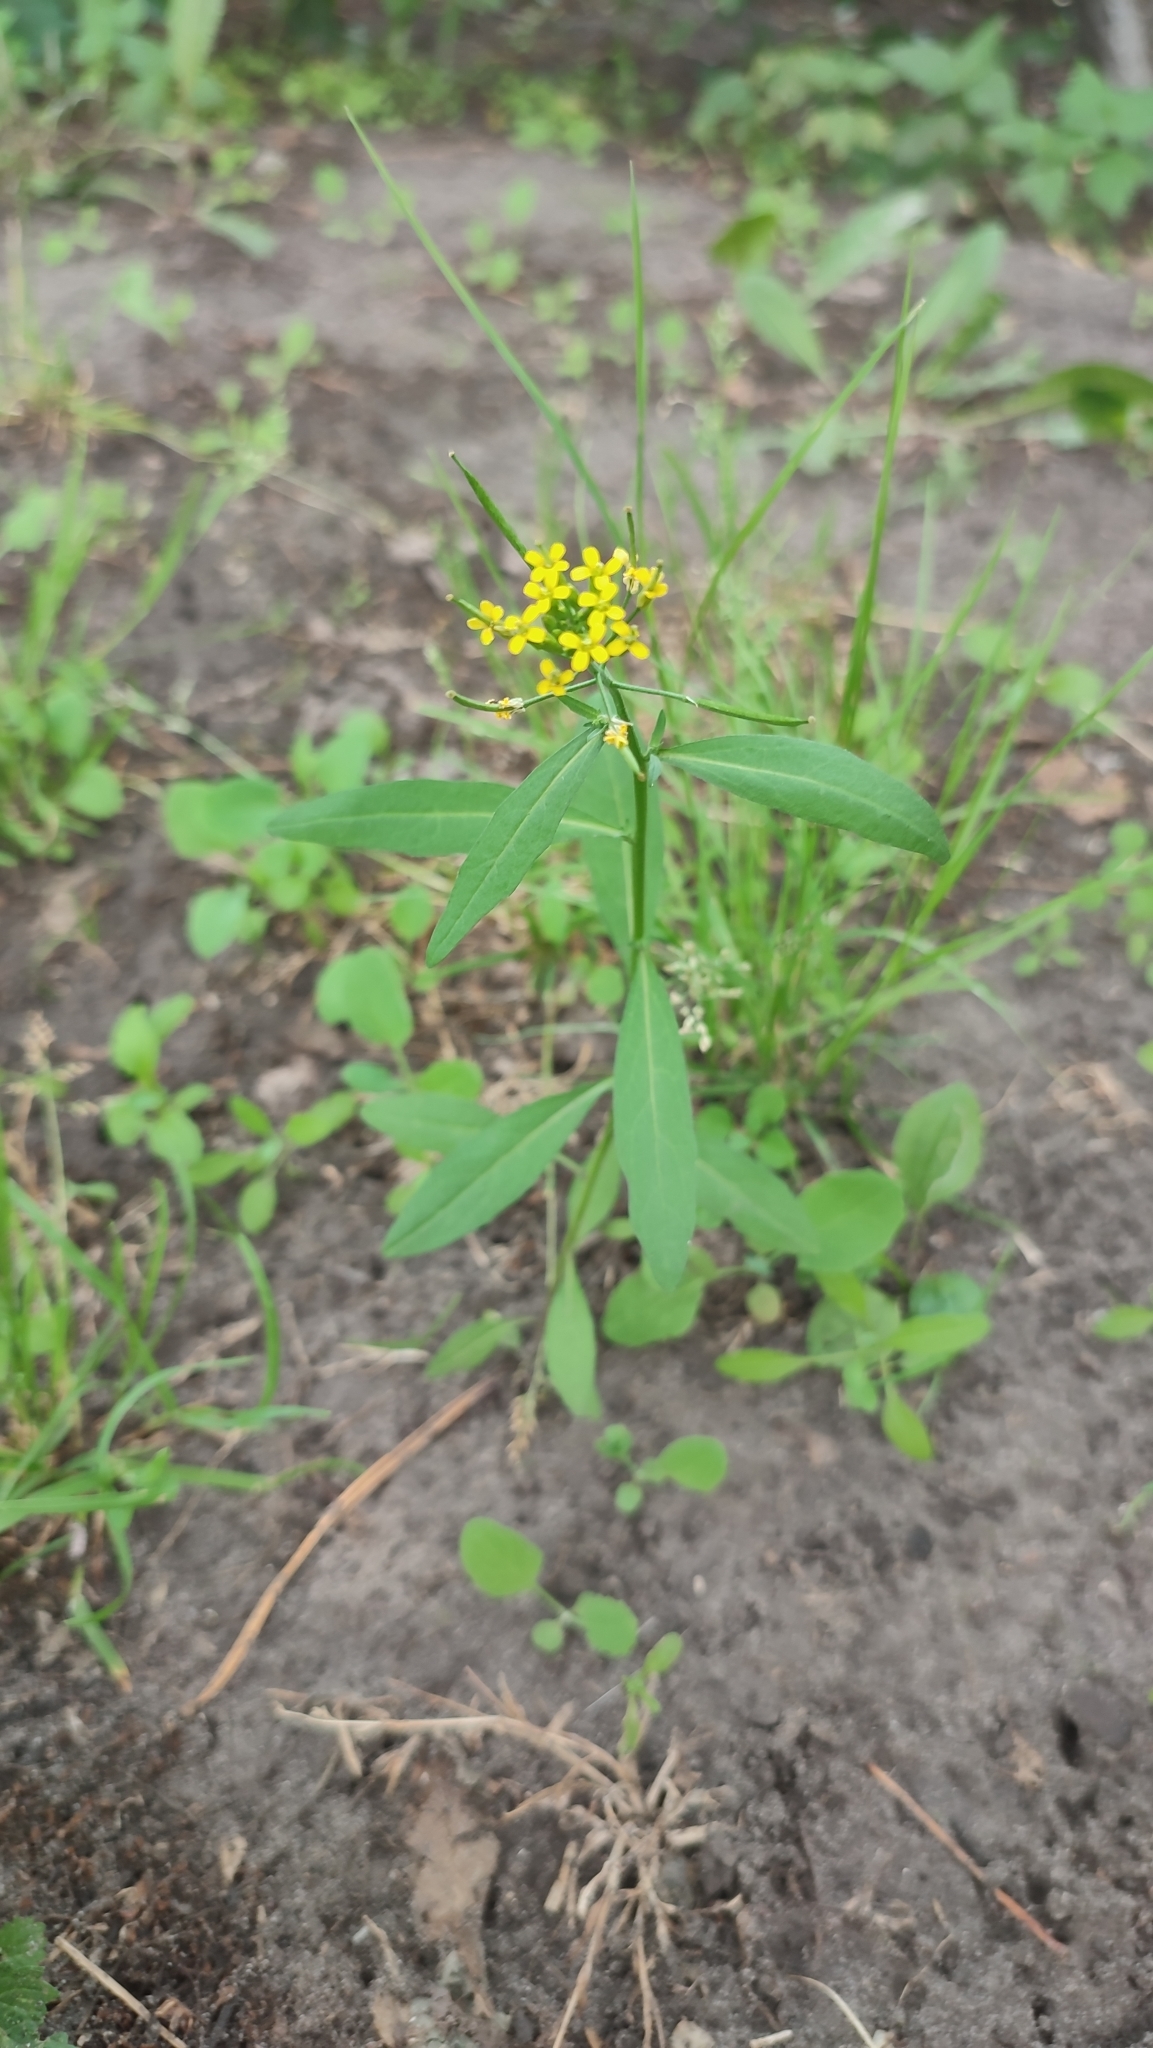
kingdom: Plantae
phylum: Tracheophyta
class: Magnoliopsida
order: Brassicales
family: Brassicaceae
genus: Erysimum
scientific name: Erysimum cheiranthoides
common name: Treacle mustard
